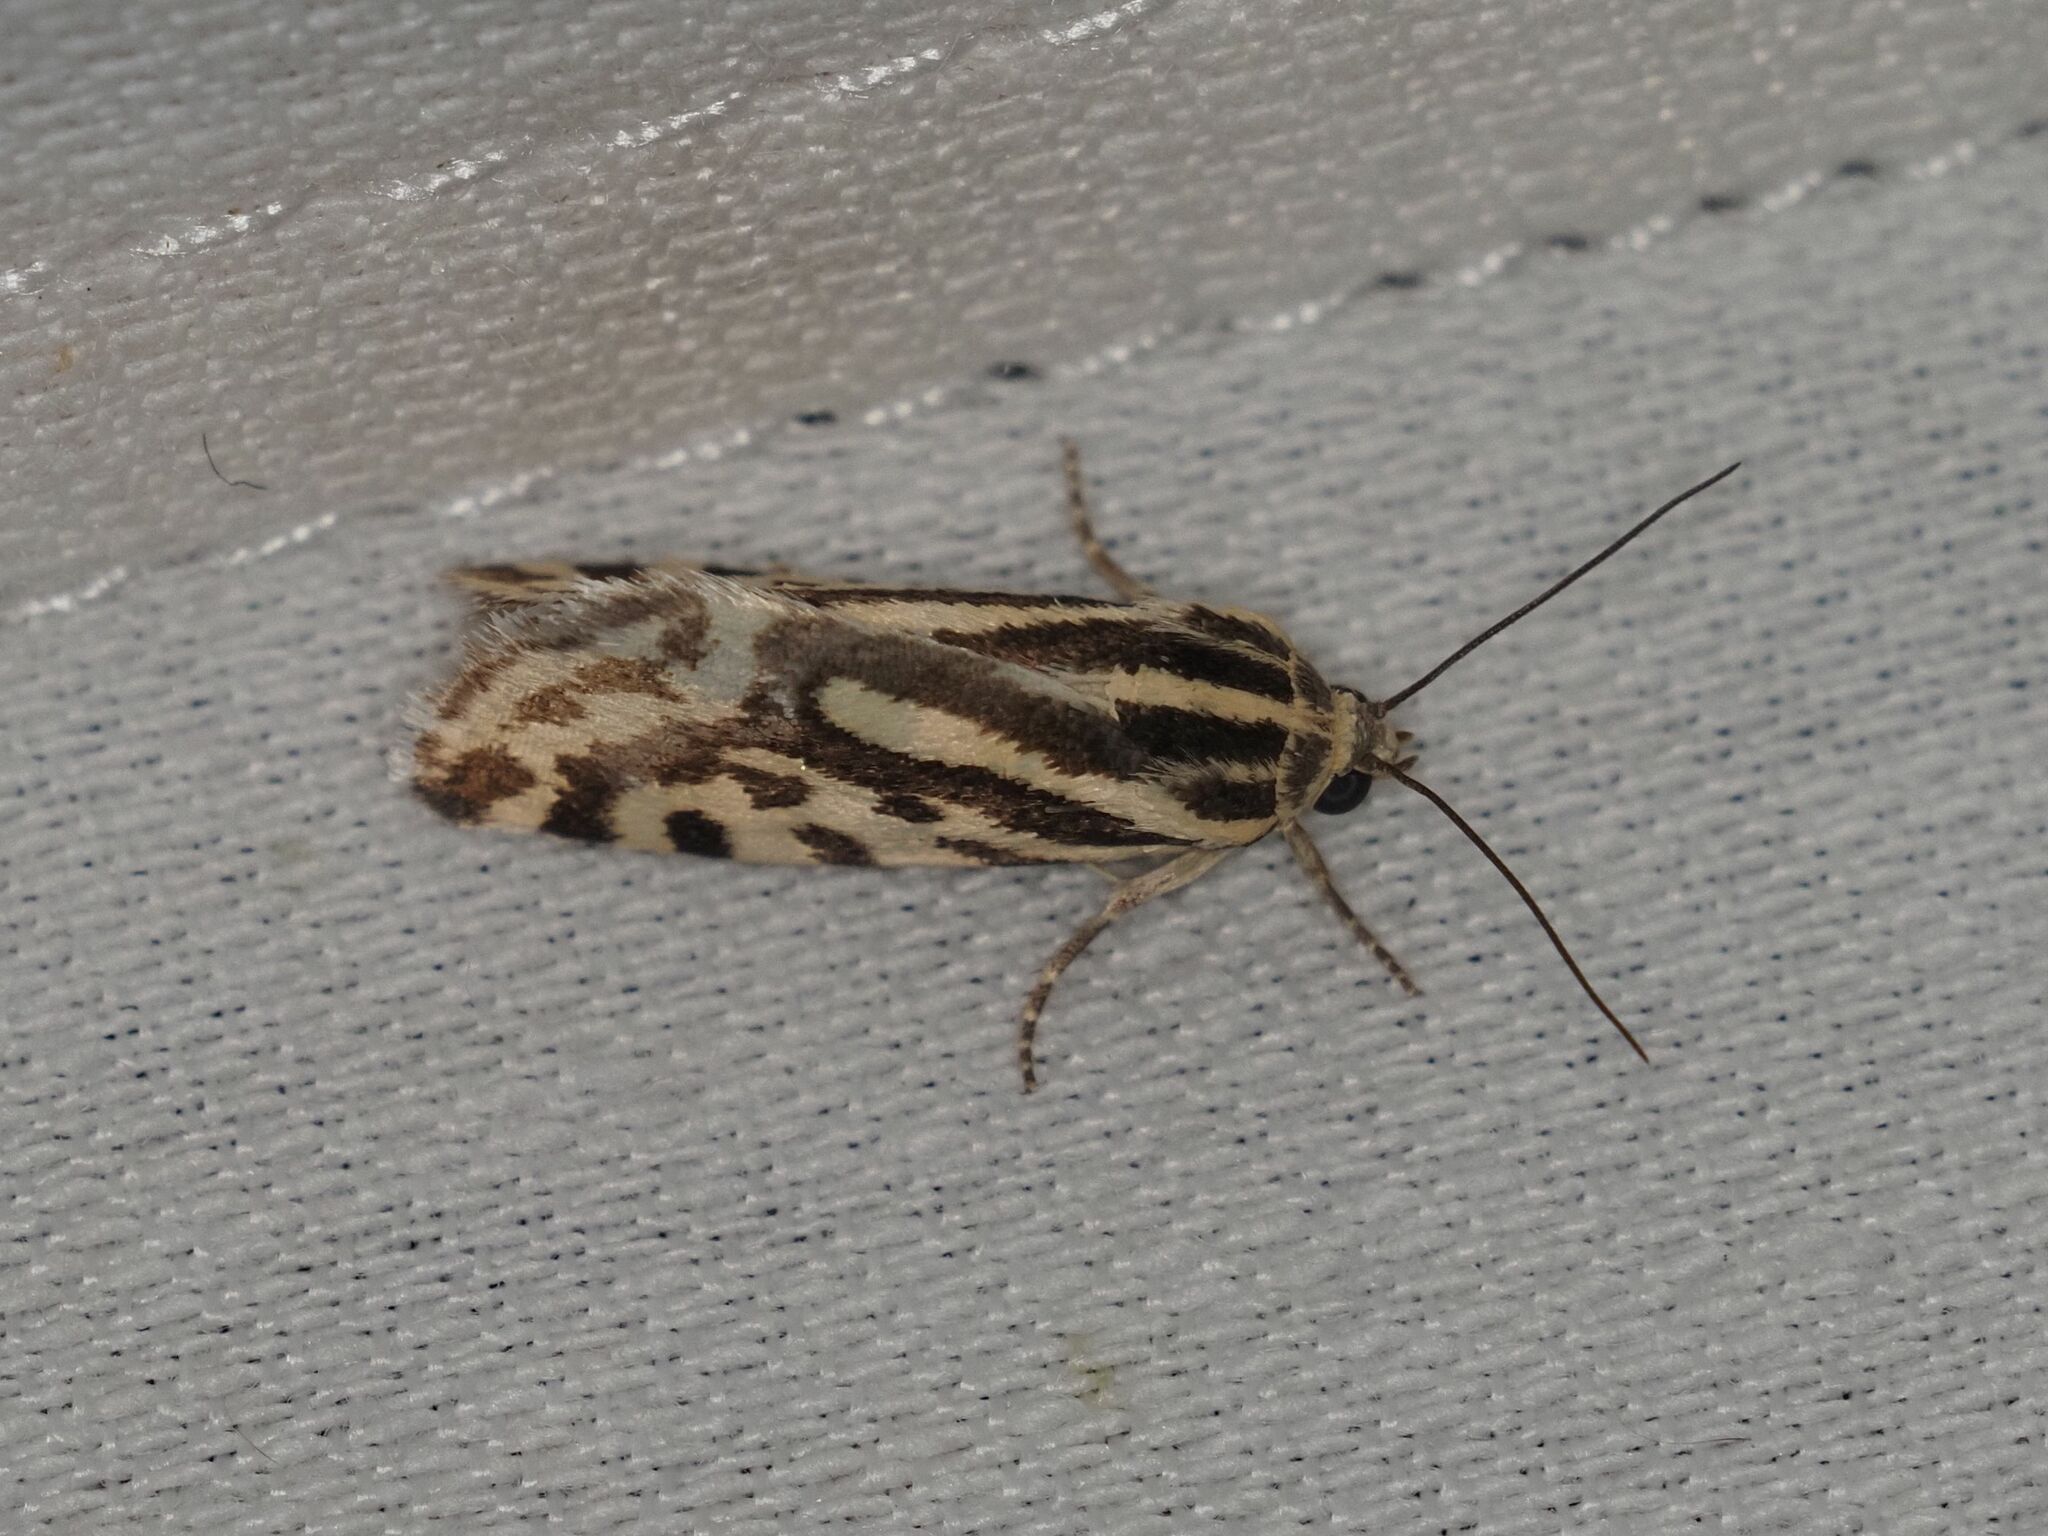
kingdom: Animalia
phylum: Arthropoda
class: Insecta
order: Lepidoptera
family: Noctuidae
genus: Acontia
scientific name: Acontia trabealis
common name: Spotted sulphur
